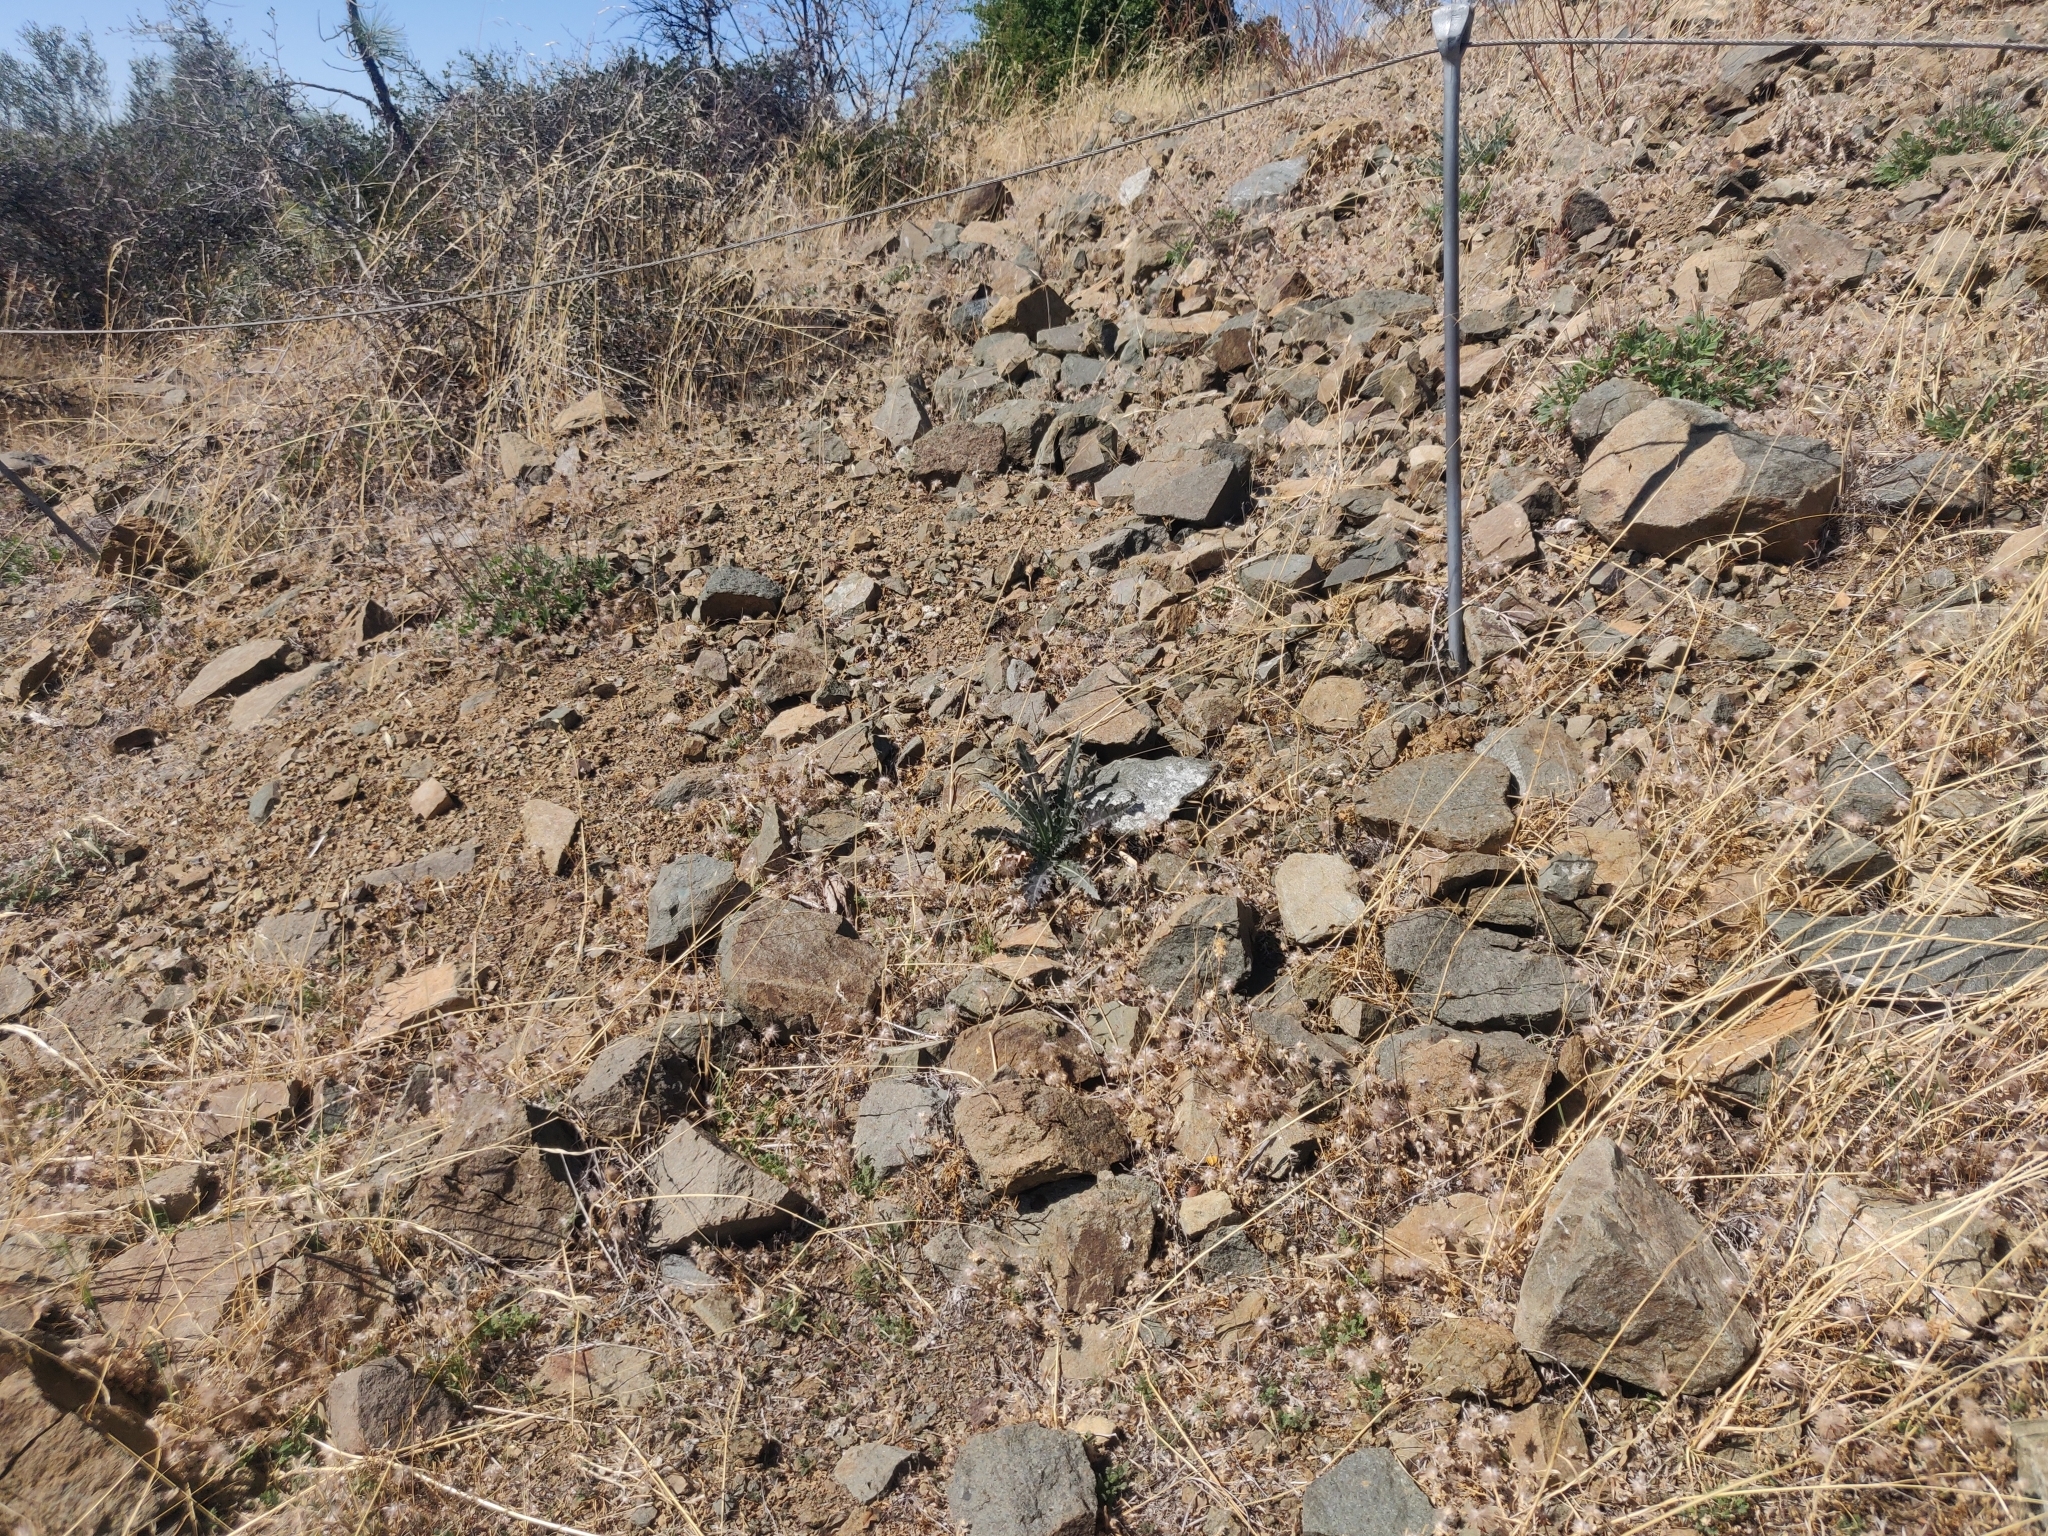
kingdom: Plantae
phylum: Tracheophyta
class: Magnoliopsida
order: Asterales
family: Asteraceae
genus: Cirsium
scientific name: Cirsium occidentale
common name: Western thistle
